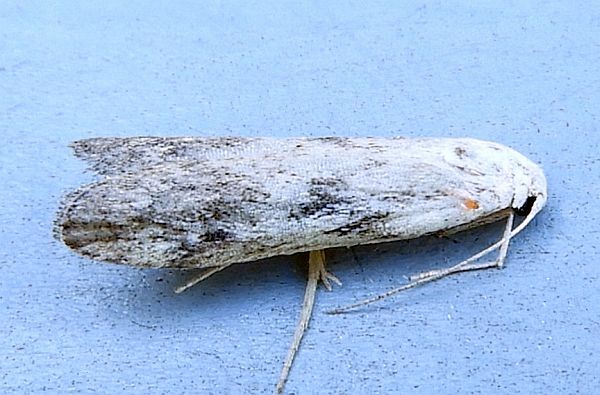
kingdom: Animalia
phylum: Arthropoda
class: Insecta
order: Lepidoptera
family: Pyralidae
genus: Aphomia
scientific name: Aphomia fulminalis
